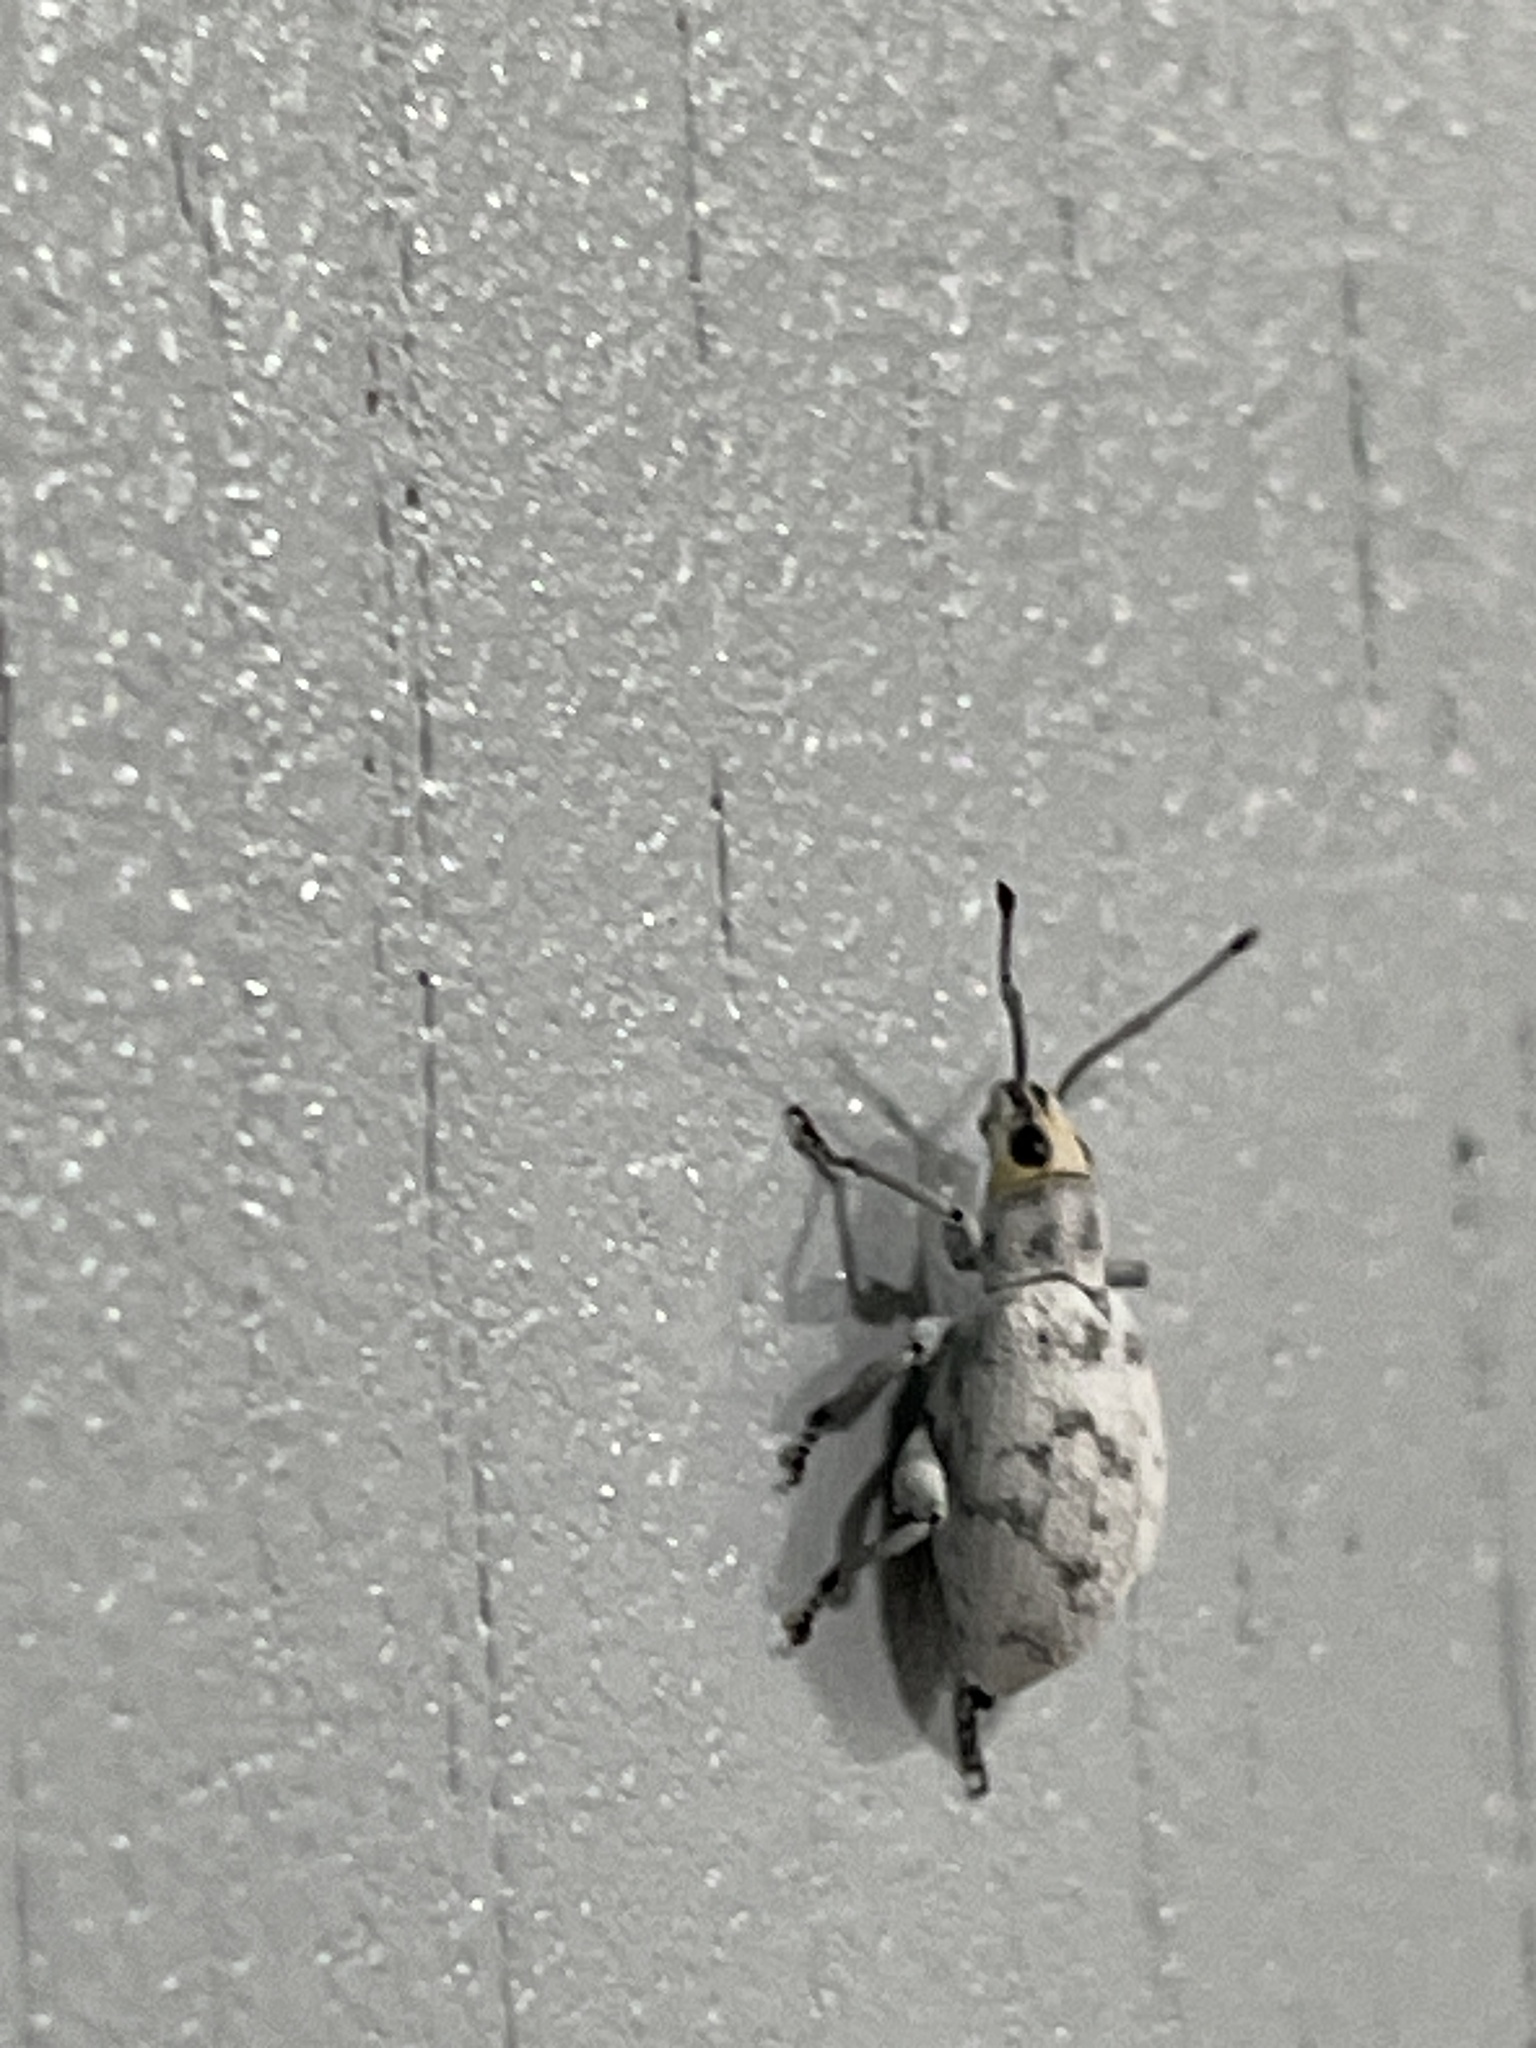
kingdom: Animalia
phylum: Arthropoda
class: Insecta
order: Coleoptera
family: Curculionidae
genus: Myllocerus
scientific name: Myllocerus undecimpustulatus
